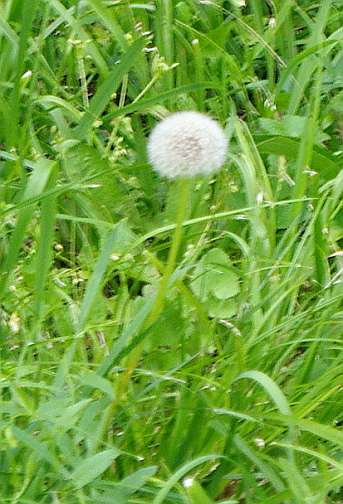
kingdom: Plantae
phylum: Tracheophyta
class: Magnoliopsida
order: Asterales
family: Asteraceae
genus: Taraxacum
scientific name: Taraxacum officinale
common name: Common dandelion
